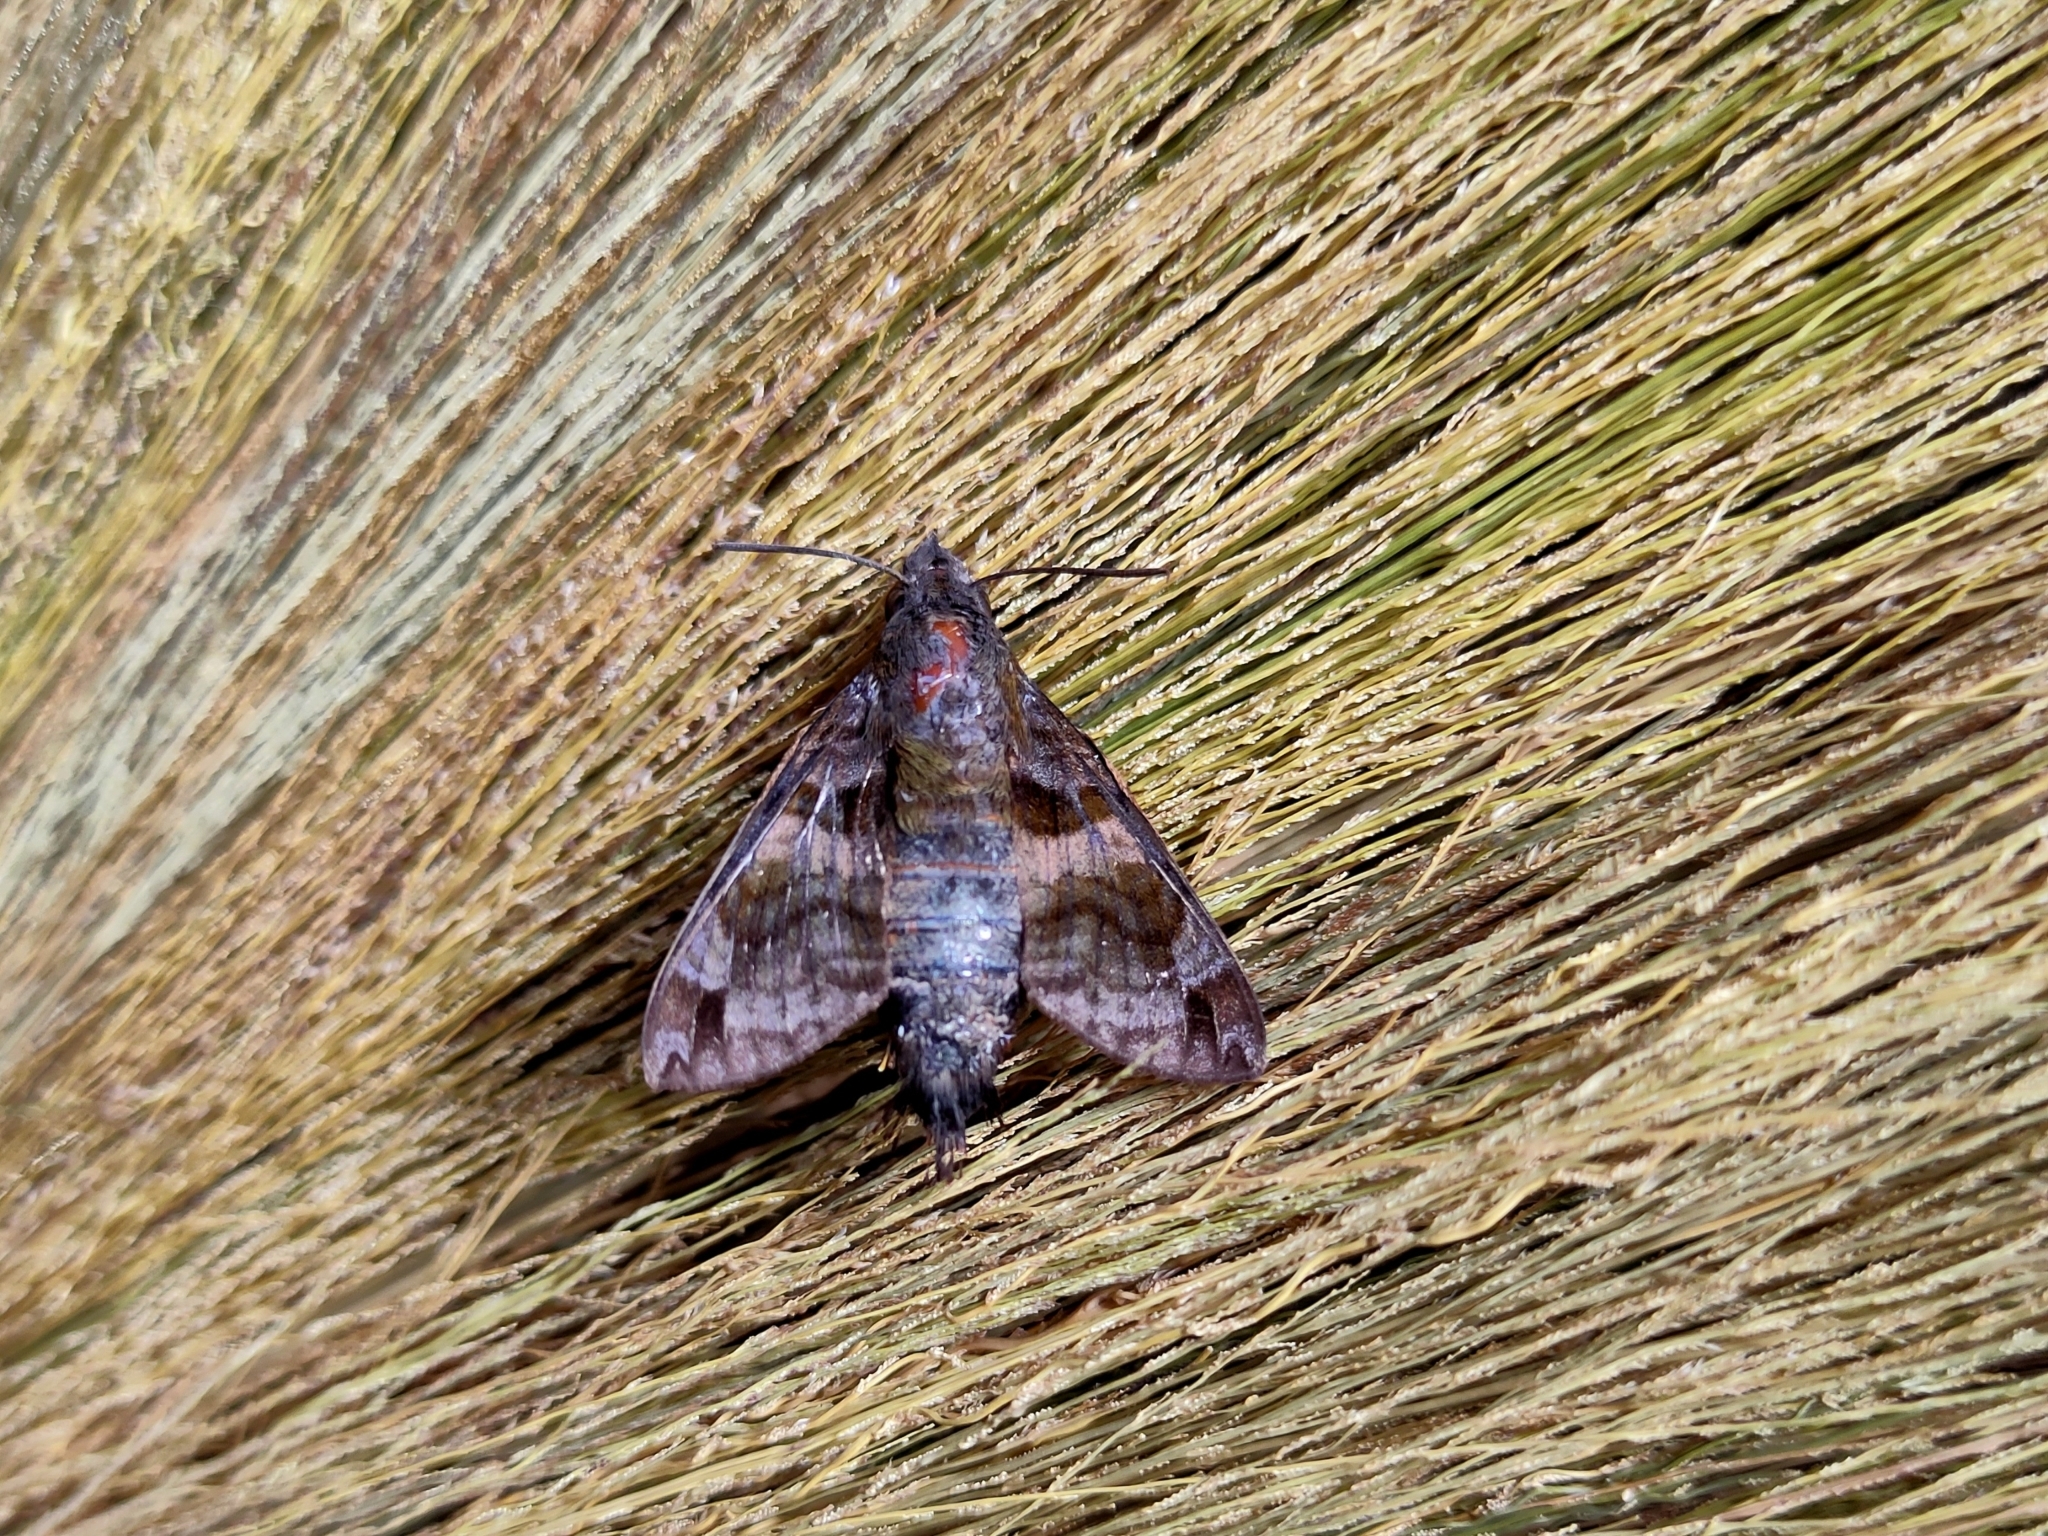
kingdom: Animalia
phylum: Arthropoda
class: Insecta
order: Lepidoptera
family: Sphingidae
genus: Macroglossum
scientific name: Macroglossum neotroglodytus
